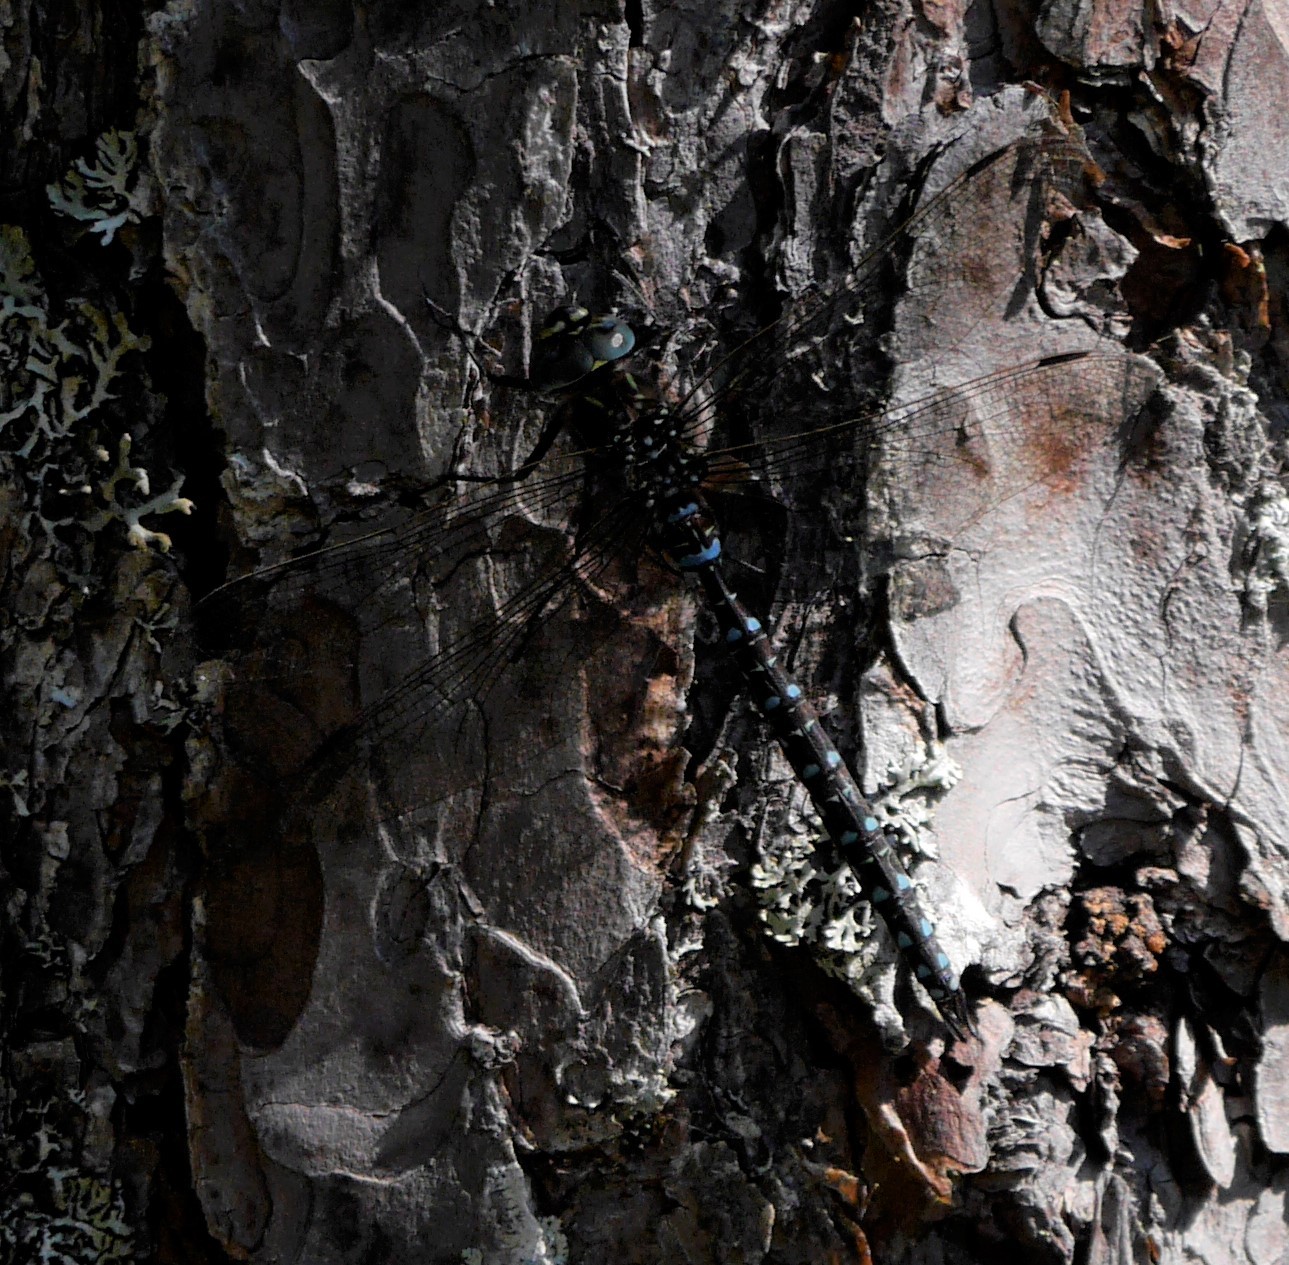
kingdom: Animalia
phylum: Arthropoda
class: Insecta
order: Odonata
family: Aeshnidae
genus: Aeshna
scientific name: Aeshna juncea
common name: Moorland hawker
